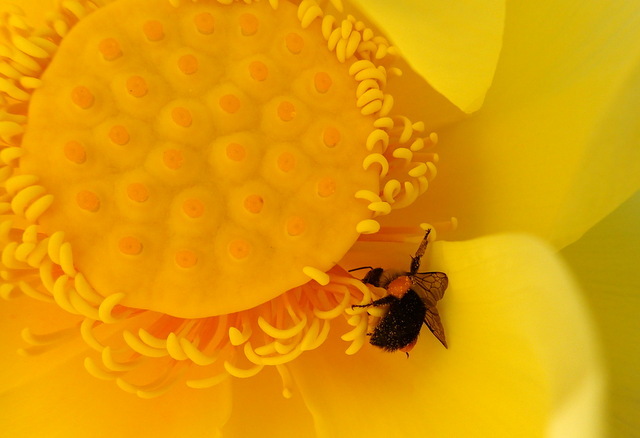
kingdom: Animalia
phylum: Arthropoda
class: Insecta
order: Hymenoptera
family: Apidae
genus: Bombus
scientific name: Bombus impatiens
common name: Common eastern bumble bee
